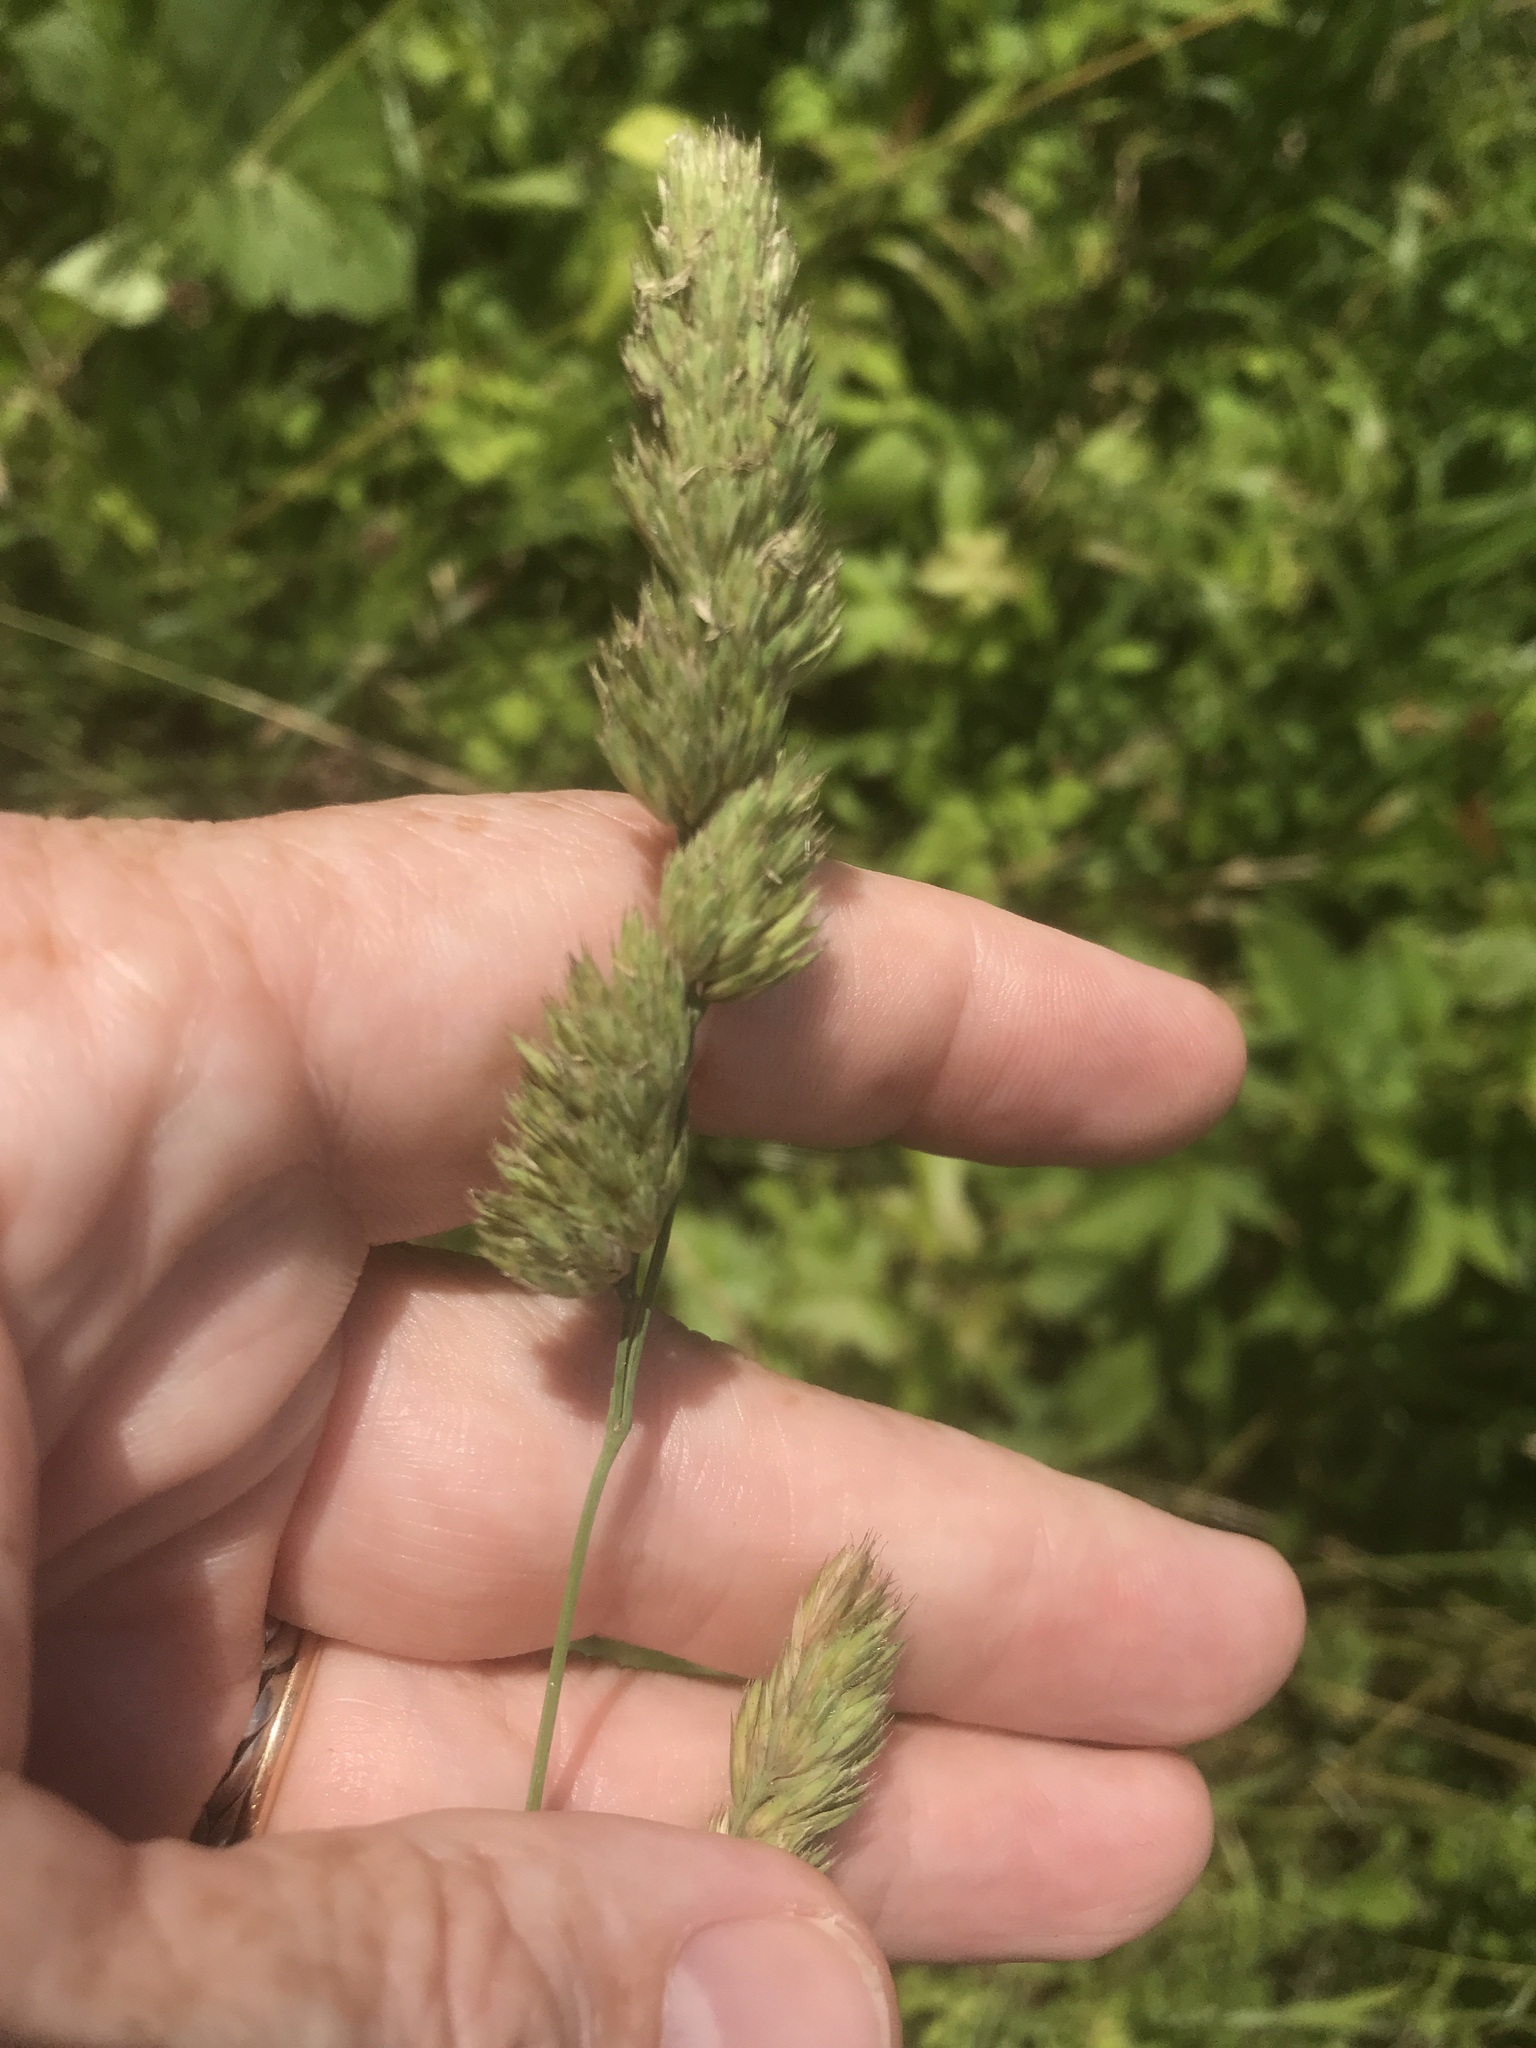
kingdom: Plantae
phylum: Tracheophyta
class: Liliopsida
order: Poales
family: Poaceae
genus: Dactylis
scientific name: Dactylis glomerata
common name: Orchardgrass
